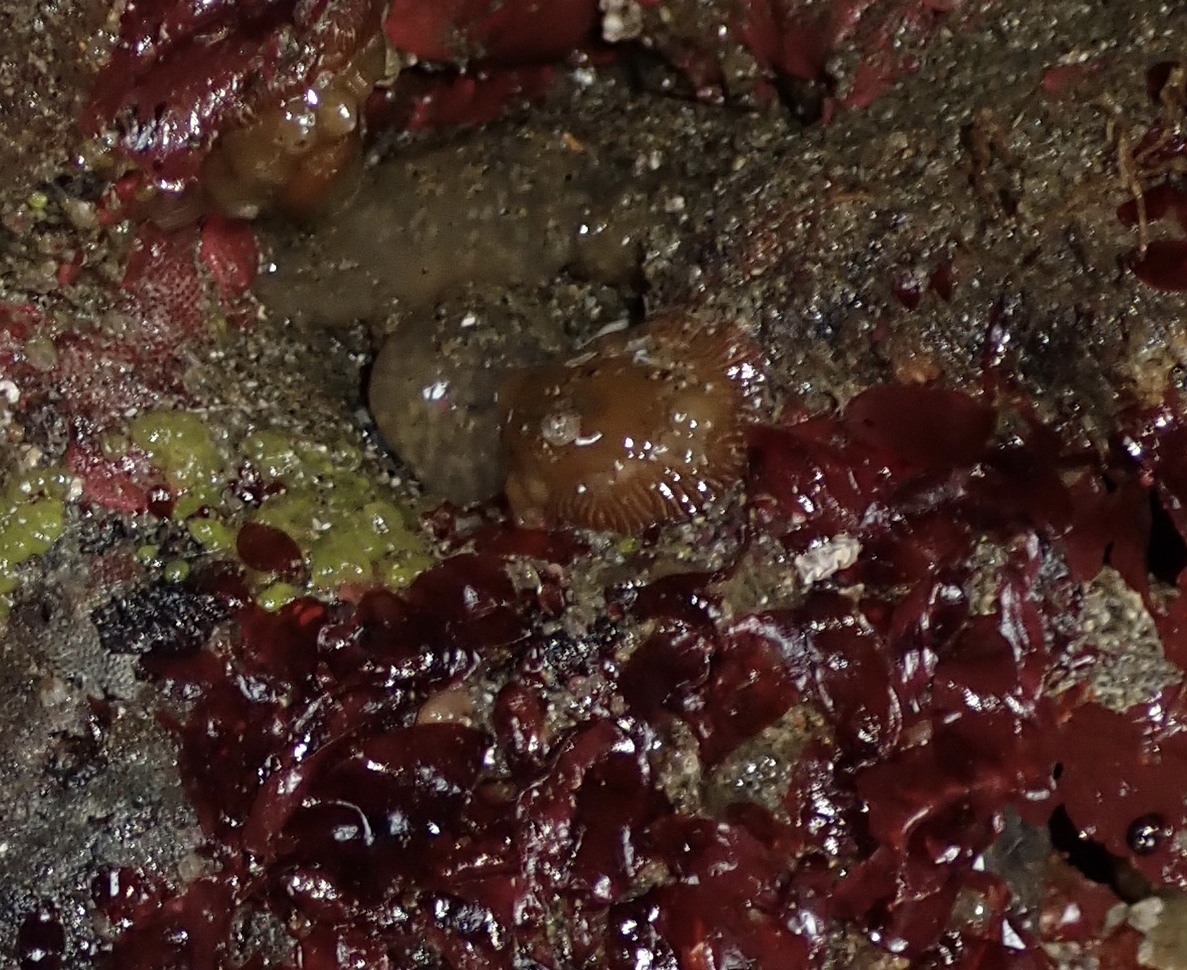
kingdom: Animalia
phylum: Cnidaria
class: Anthozoa
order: Actiniaria
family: Actiniidae
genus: Epiactis
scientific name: Epiactis prolifera
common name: Brooding anemone
